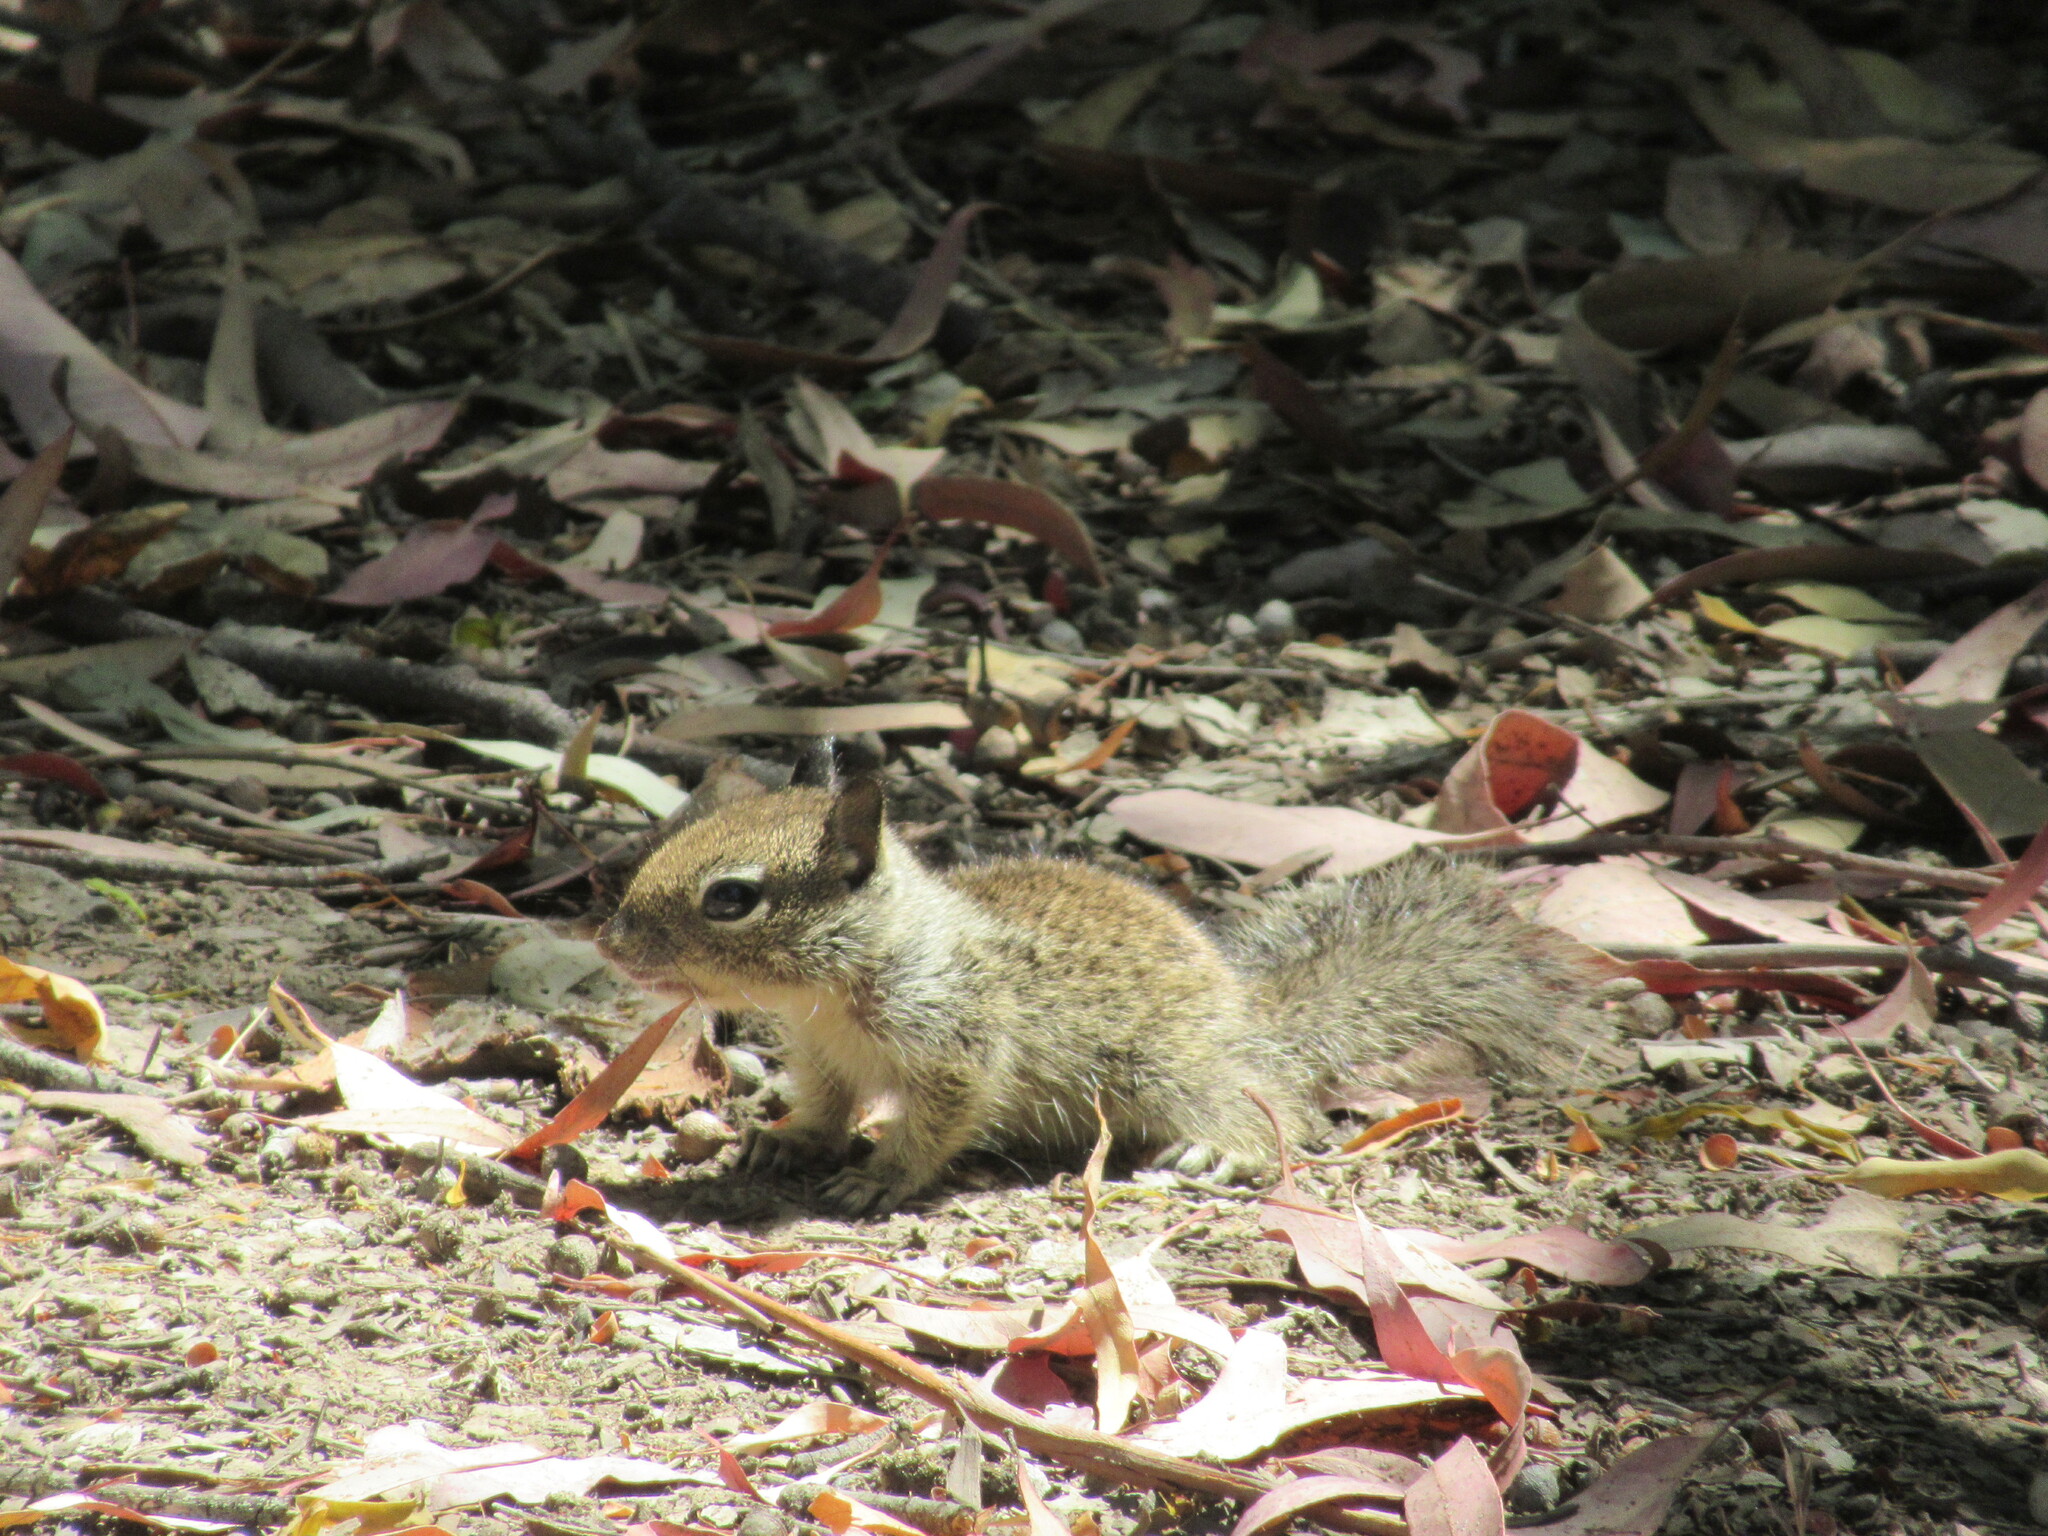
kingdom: Animalia
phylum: Chordata
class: Mammalia
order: Rodentia
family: Sciuridae
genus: Otospermophilus
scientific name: Otospermophilus beecheyi
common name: California ground squirrel
